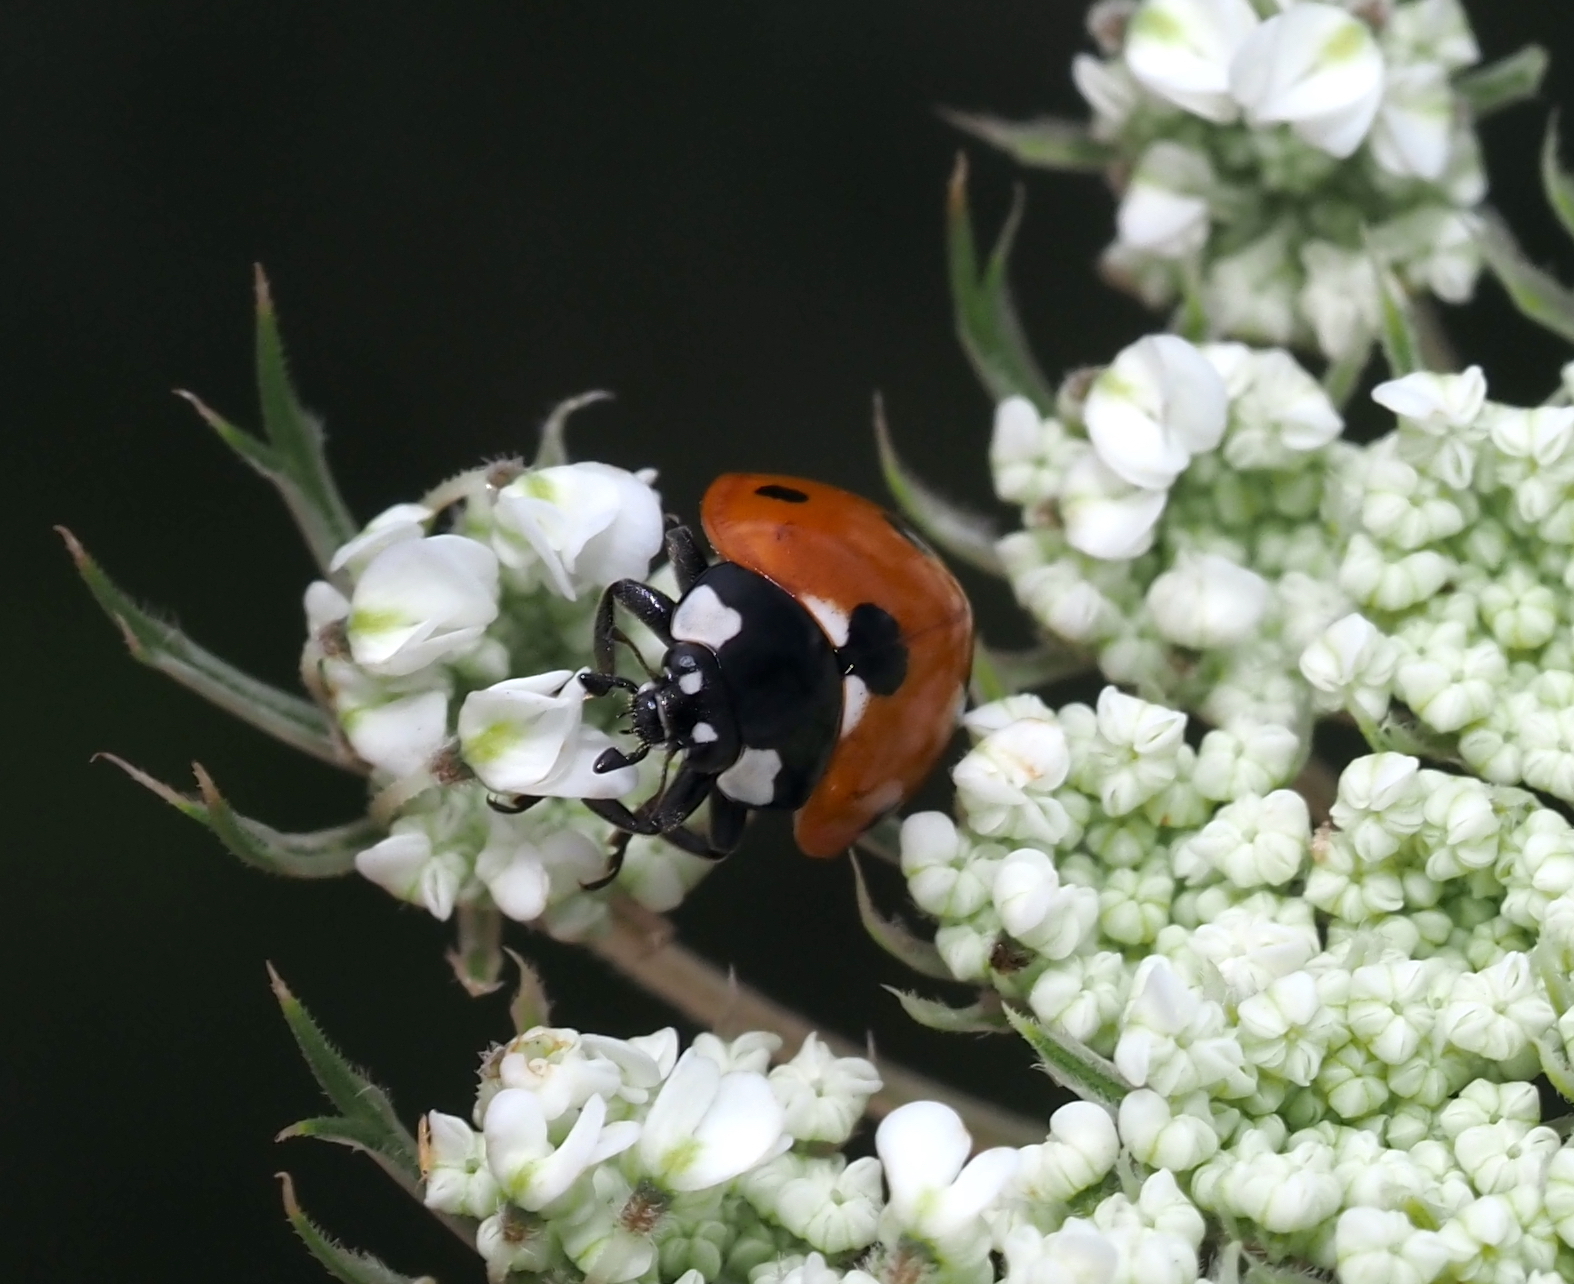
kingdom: Animalia
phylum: Arthropoda
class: Insecta
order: Coleoptera
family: Coccinellidae
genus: Coccinella
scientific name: Coccinella septempunctata
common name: Sevenspotted lady beetle
